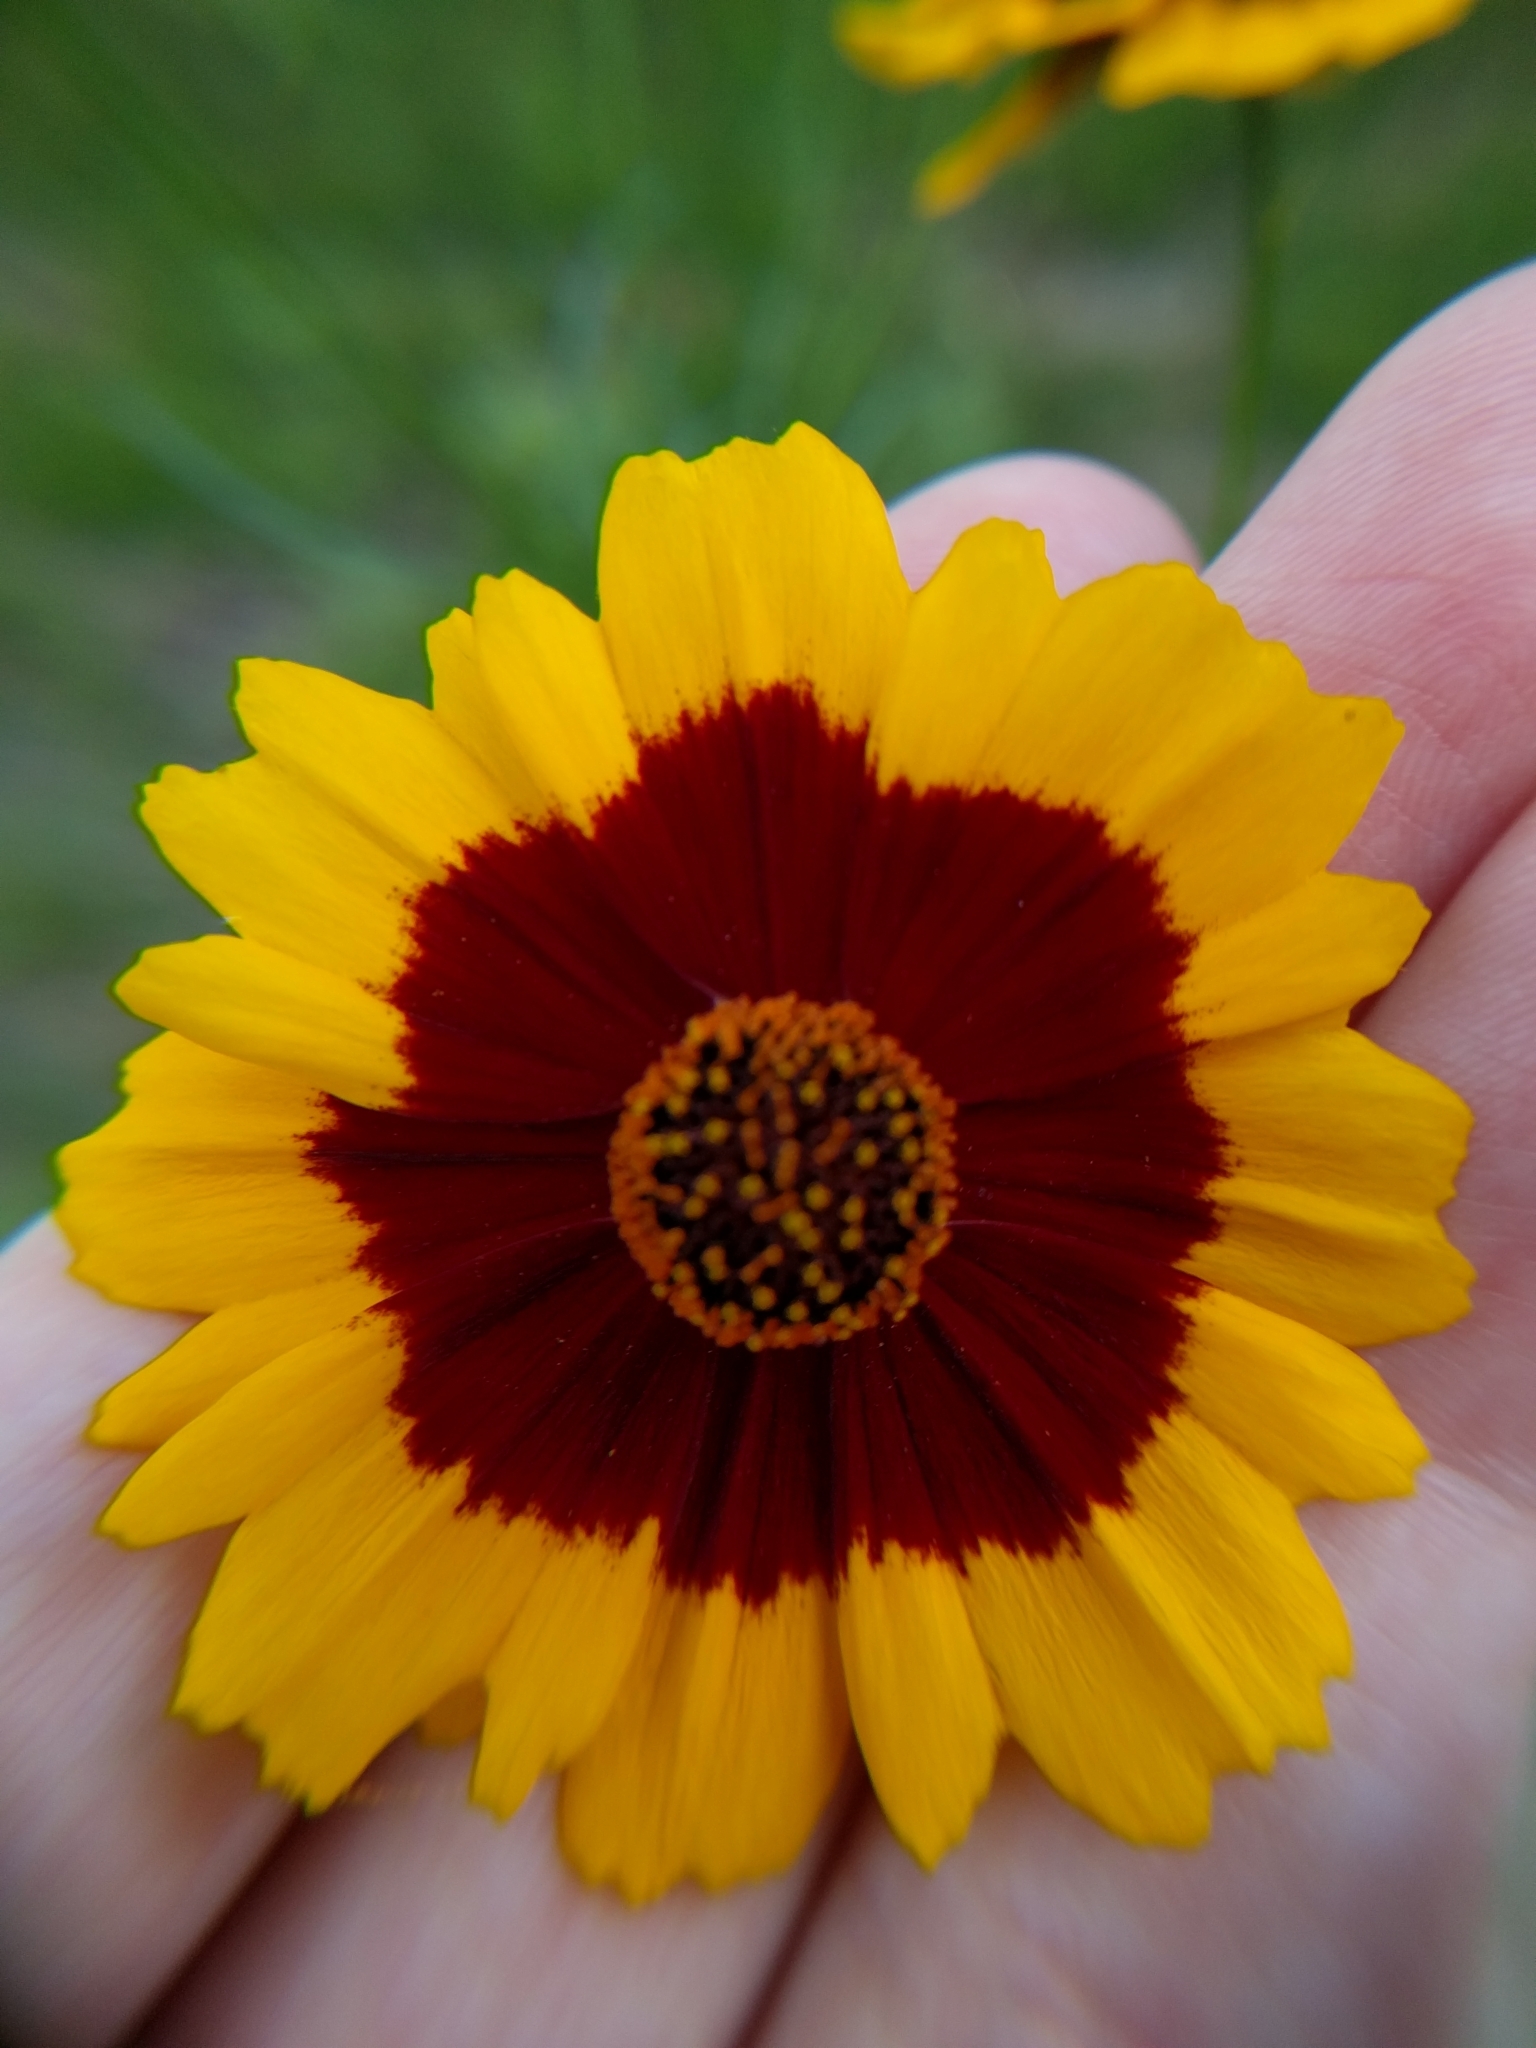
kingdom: Plantae
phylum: Tracheophyta
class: Magnoliopsida
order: Asterales
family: Asteraceae
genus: Coreopsis
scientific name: Coreopsis tinctoria
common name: Garden tickseed
